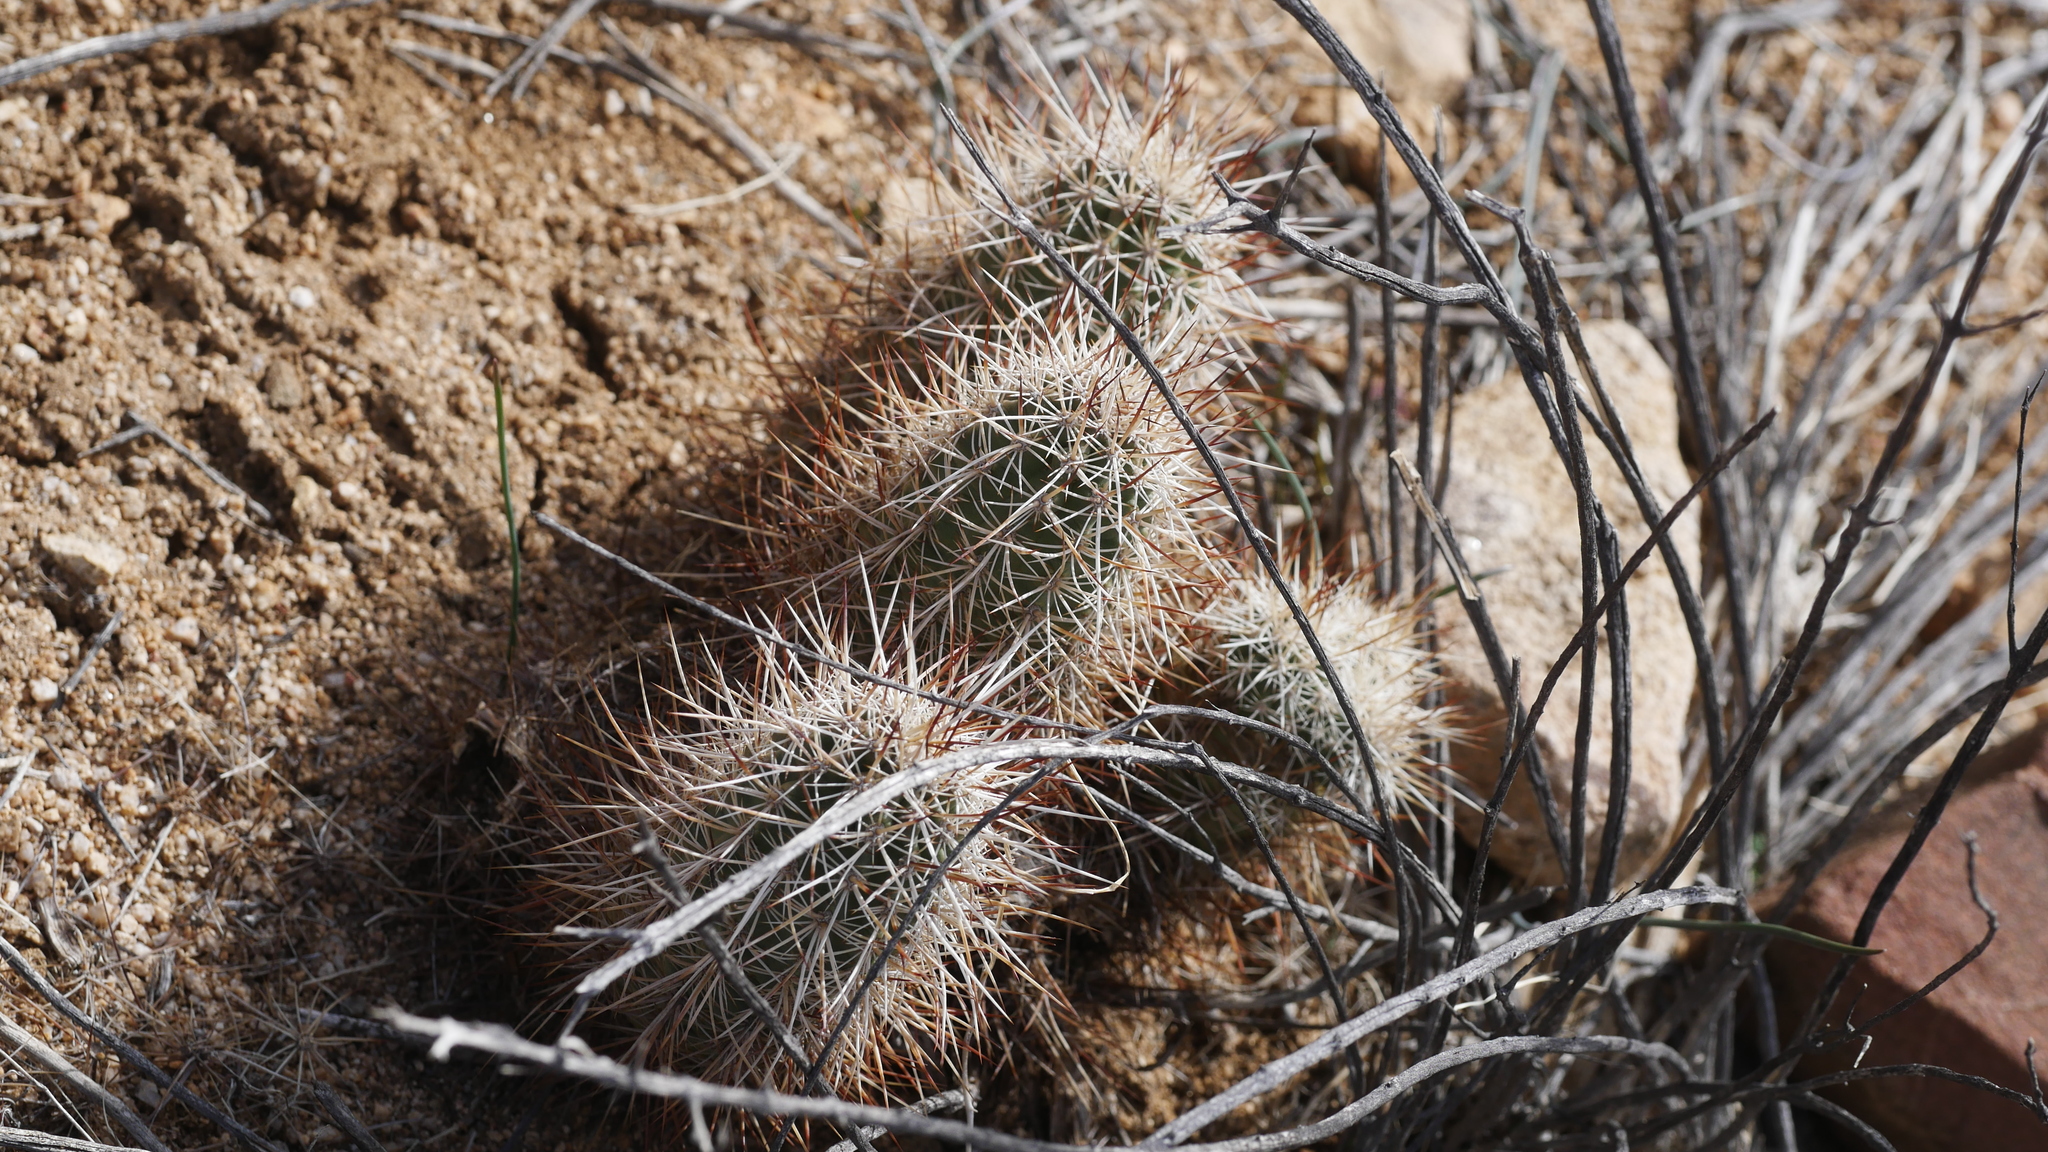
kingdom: Plantae
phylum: Tracheophyta
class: Magnoliopsida
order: Caryophyllales
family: Cactaceae
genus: Echinocereus
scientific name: Echinocereus engelmannii
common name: Engelmann's hedgehog cactus
